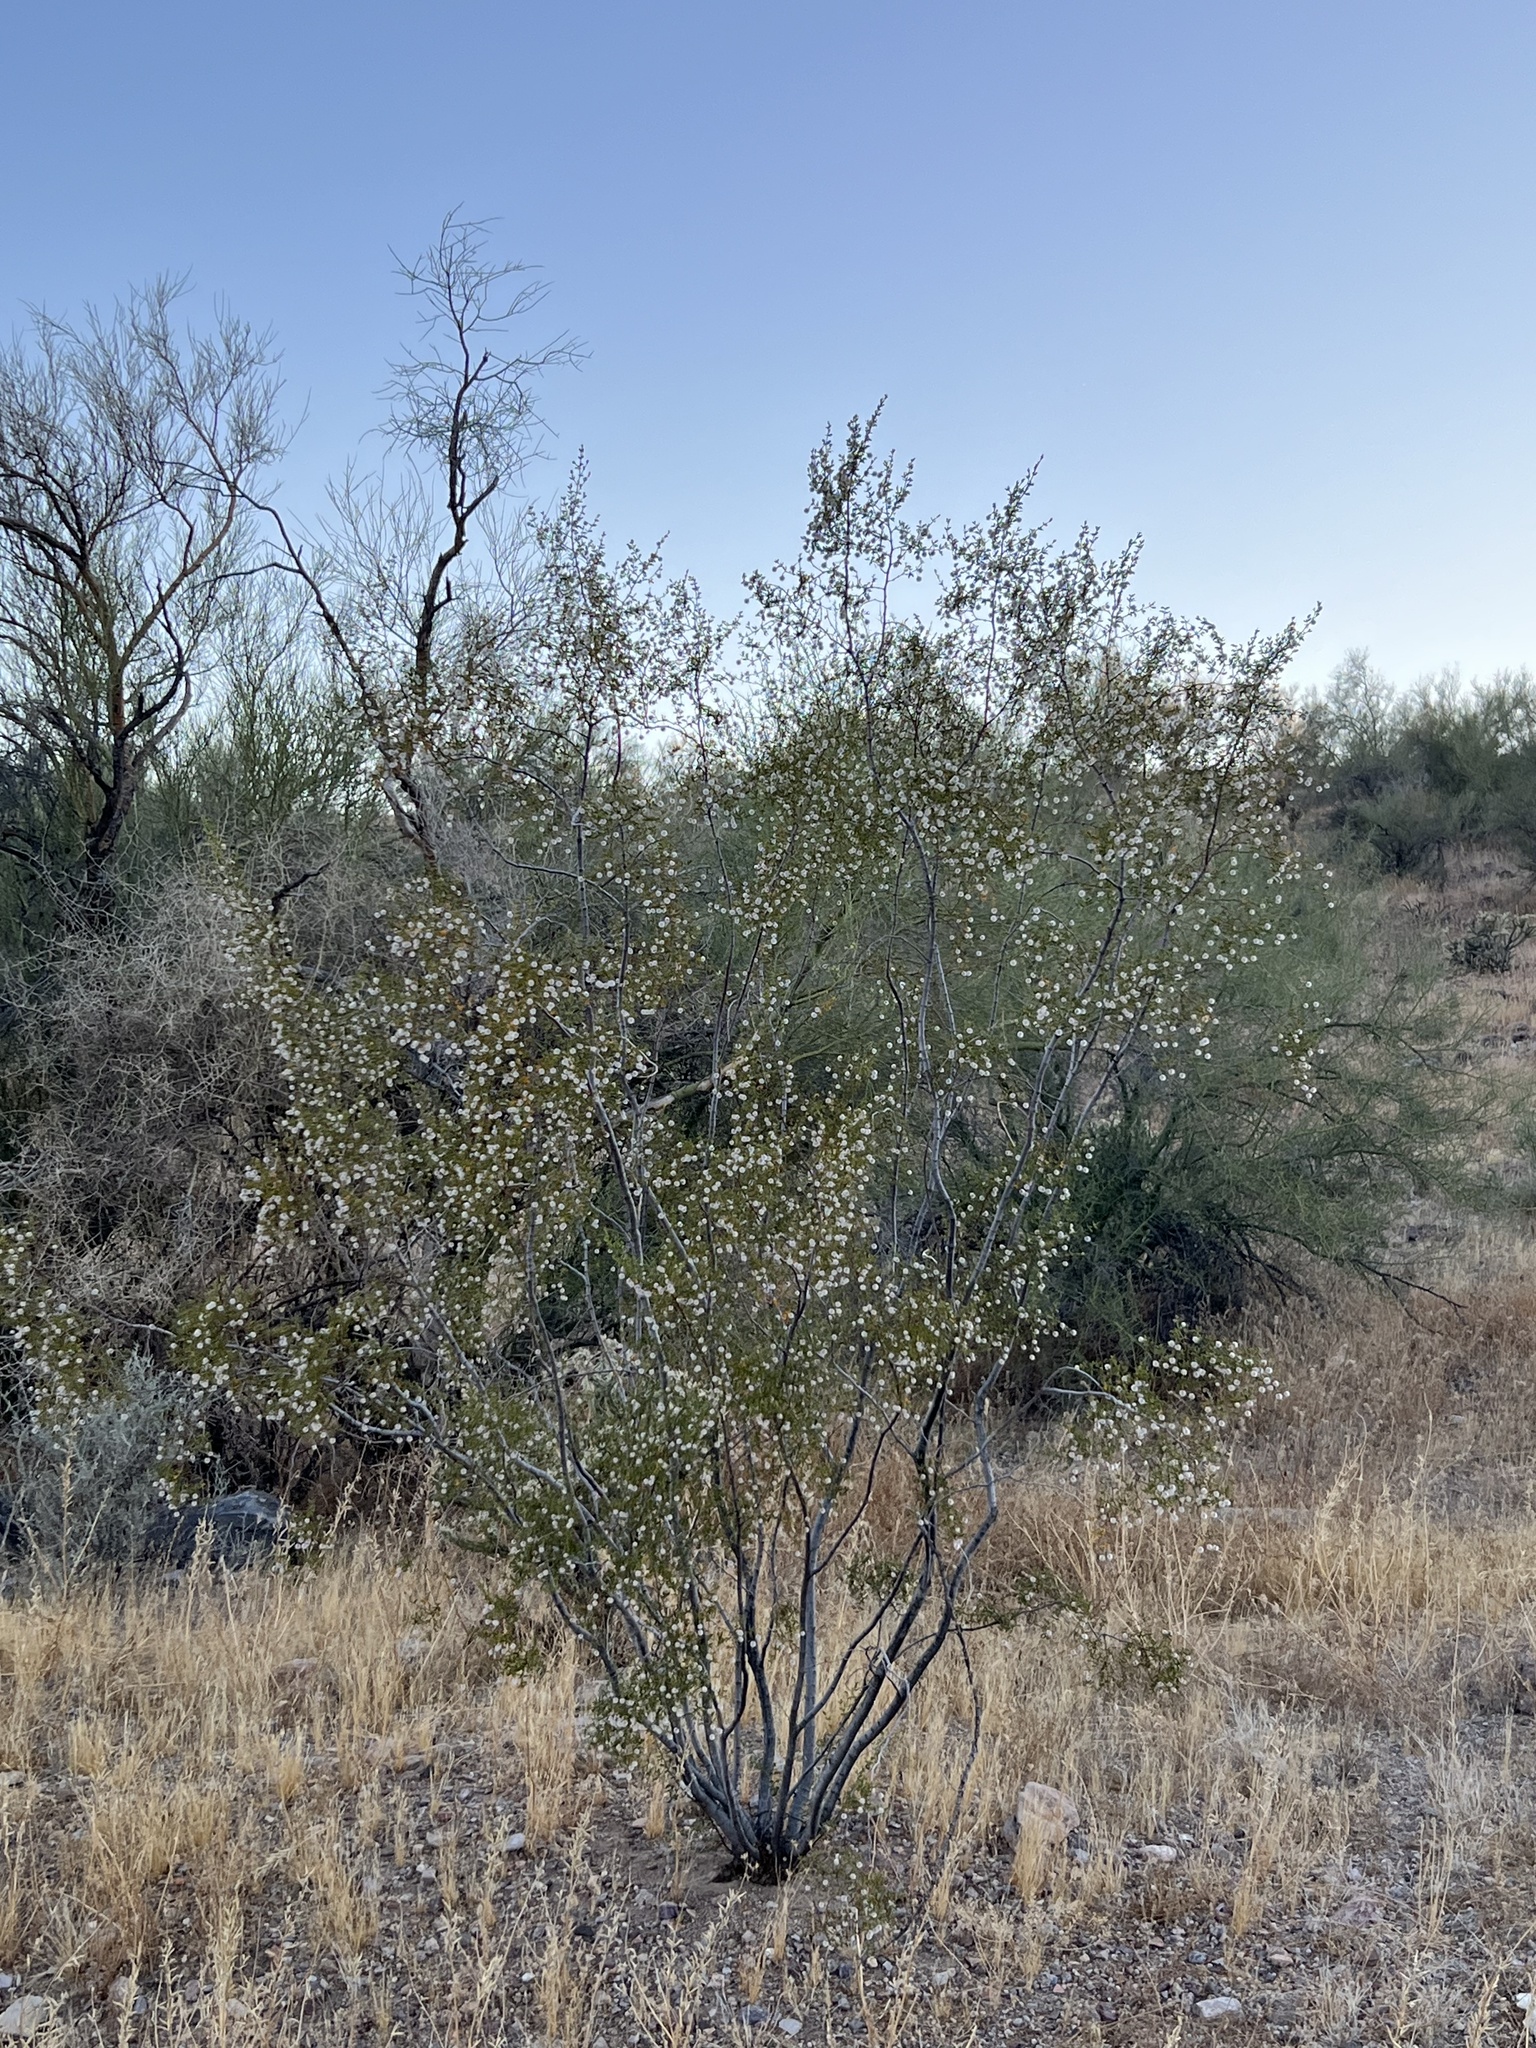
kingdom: Plantae
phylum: Tracheophyta
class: Magnoliopsida
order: Zygophyllales
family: Zygophyllaceae
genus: Larrea
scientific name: Larrea tridentata
